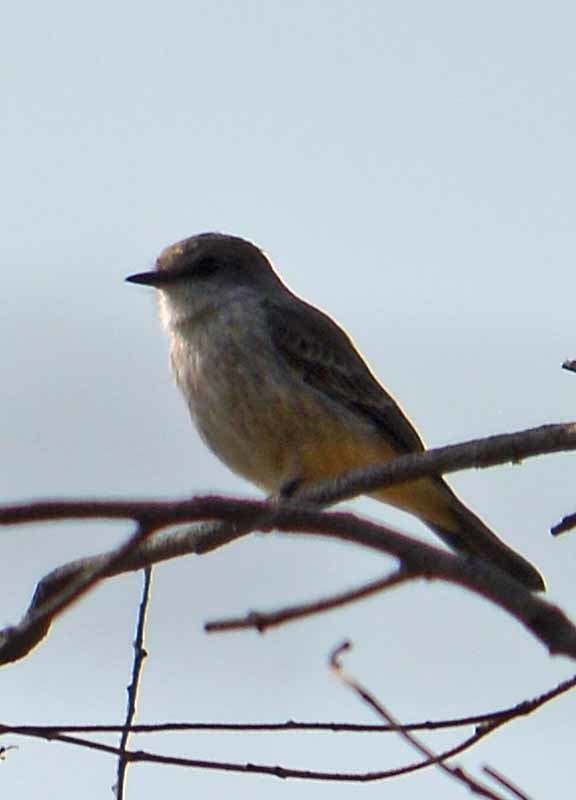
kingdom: Animalia
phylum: Chordata
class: Aves
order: Passeriformes
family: Tyrannidae
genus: Pyrocephalus
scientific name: Pyrocephalus rubinus
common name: Vermilion flycatcher
